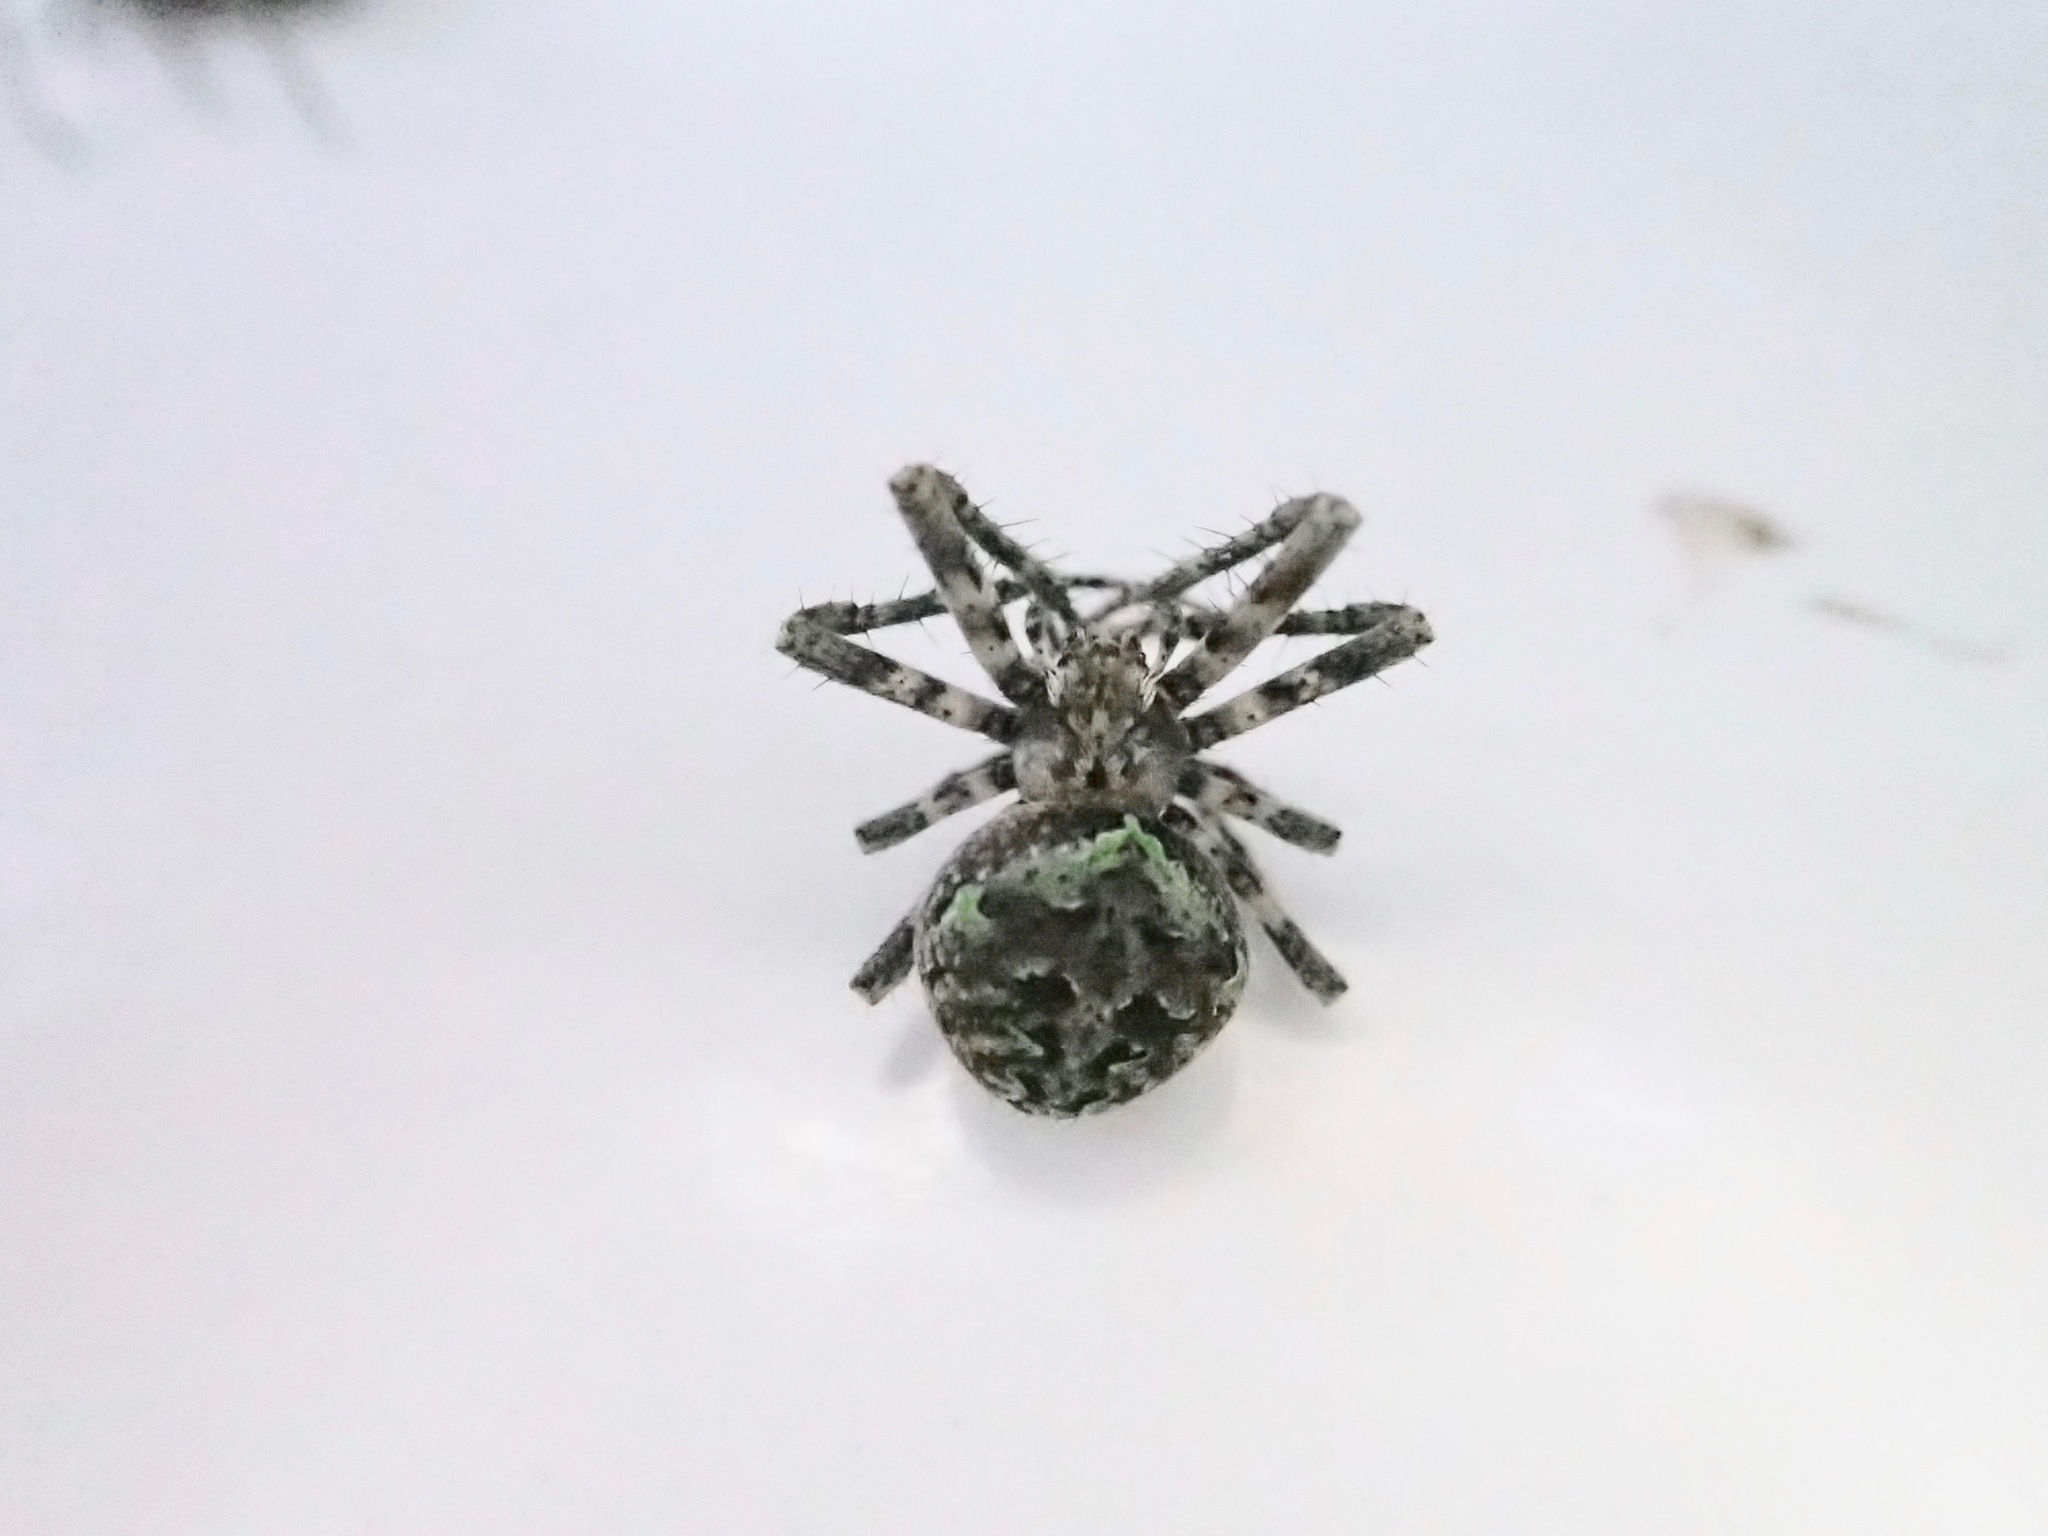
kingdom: Animalia
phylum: Arthropoda
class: Arachnida
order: Araneae
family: Araneidae
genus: Cryptaranea
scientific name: Cryptaranea
